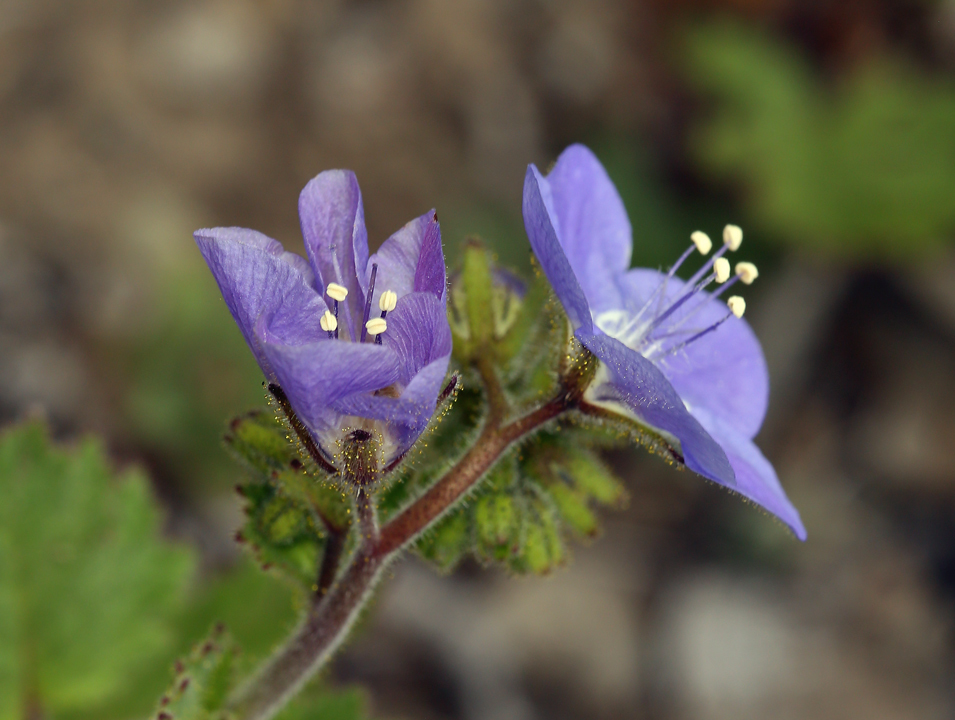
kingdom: Plantae
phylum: Tracheophyta
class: Magnoliopsida
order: Boraginales
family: Hydrophyllaceae
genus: Phacelia
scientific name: Phacelia viscida
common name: Sticky phacelia
